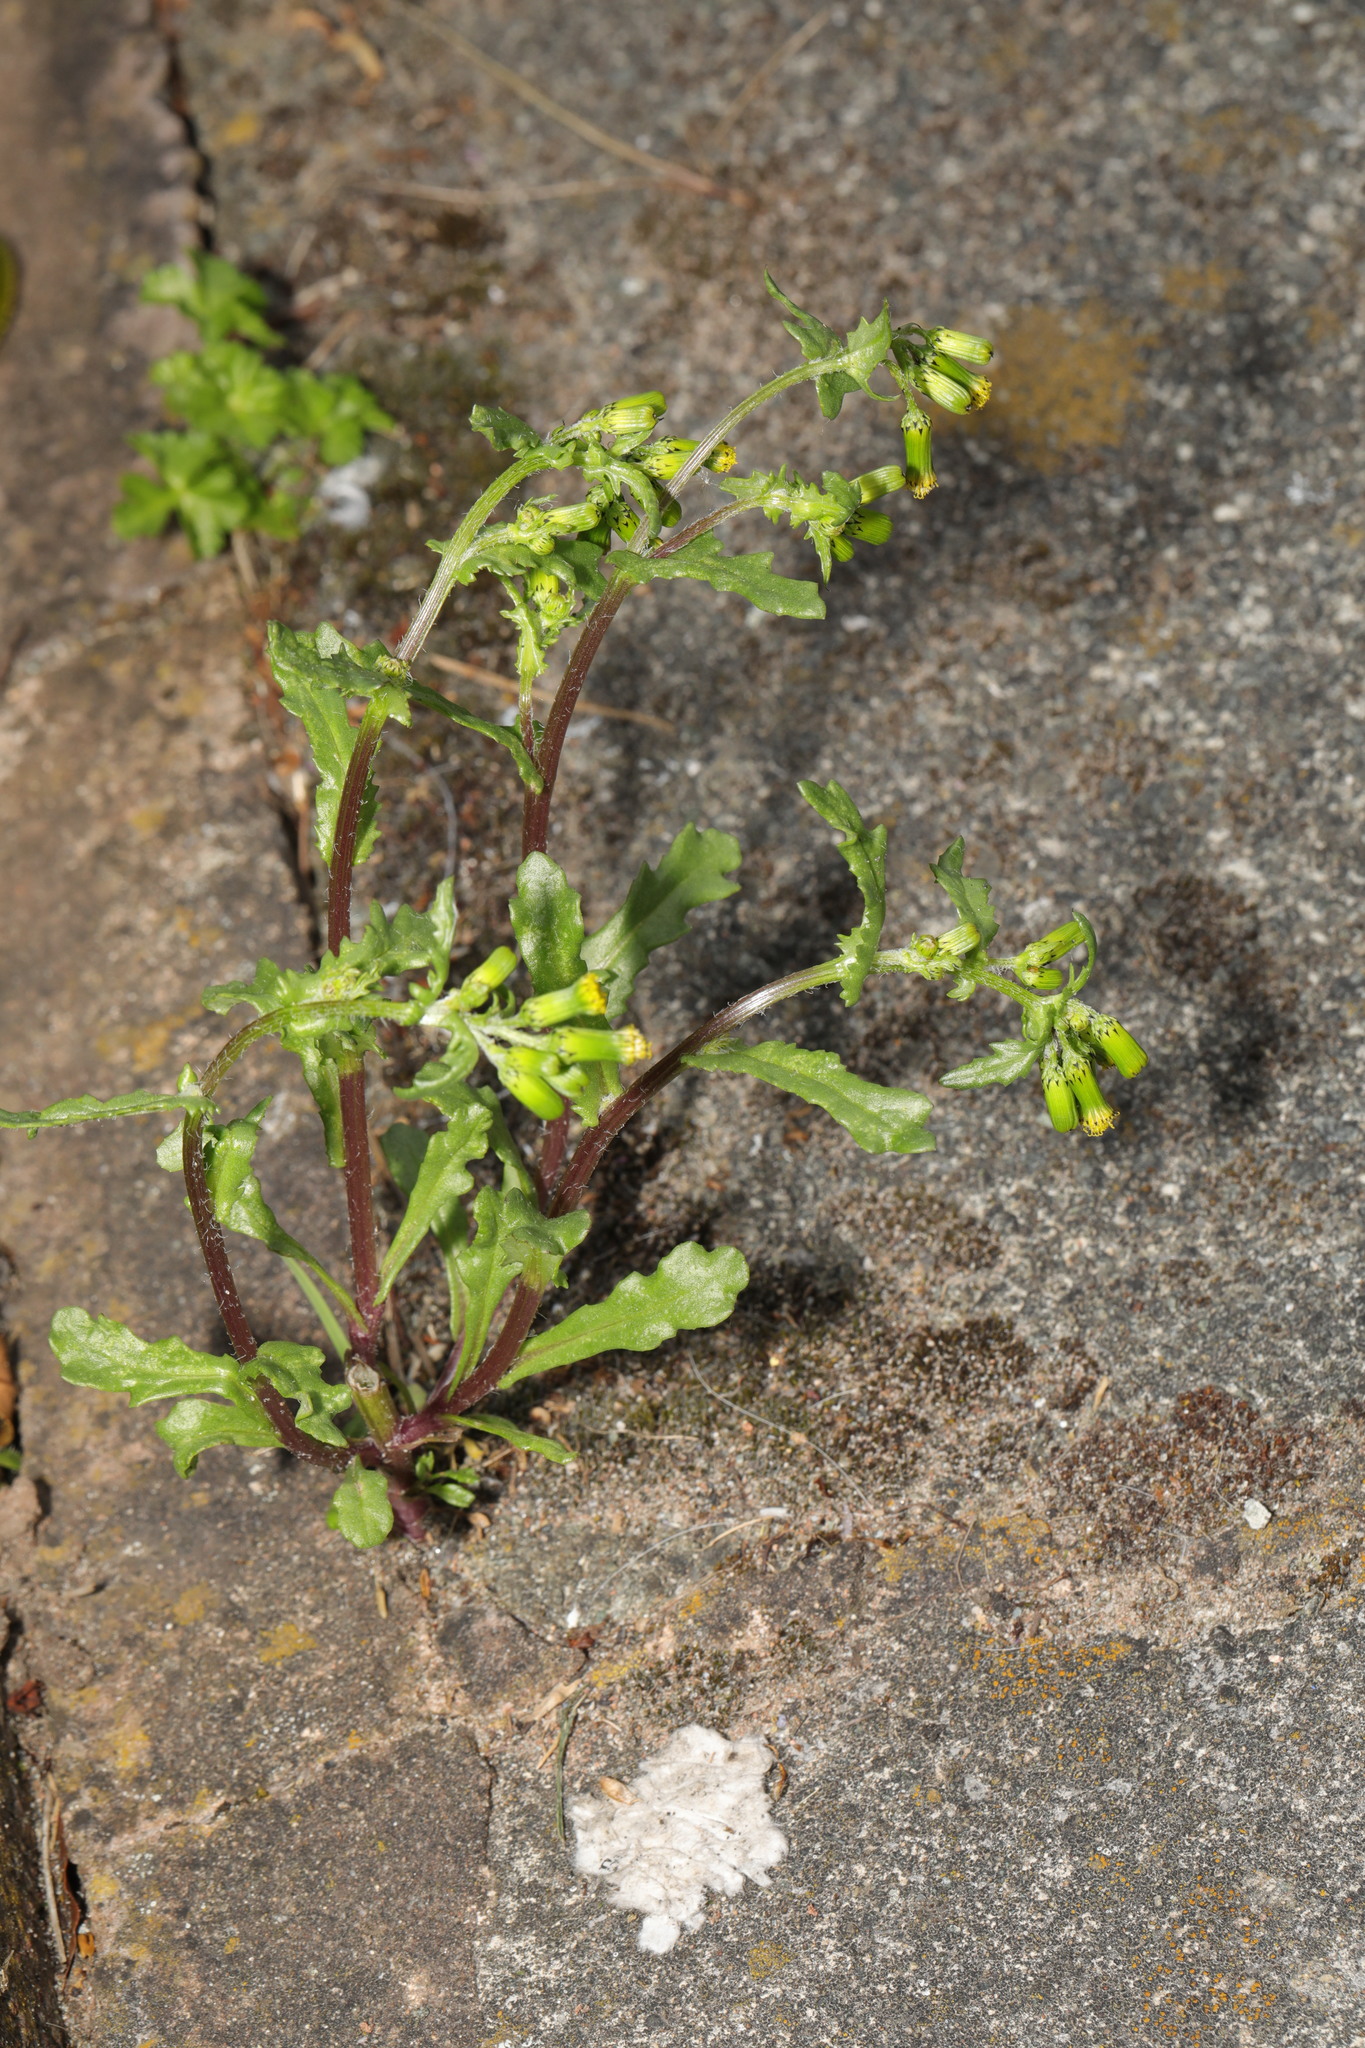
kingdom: Plantae
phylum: Tracheophyta
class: Magnoliopsida
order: Asterales
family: Asteraceae
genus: Senecio
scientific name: Senecio vulgaris
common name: Old-man-in-the-spring
